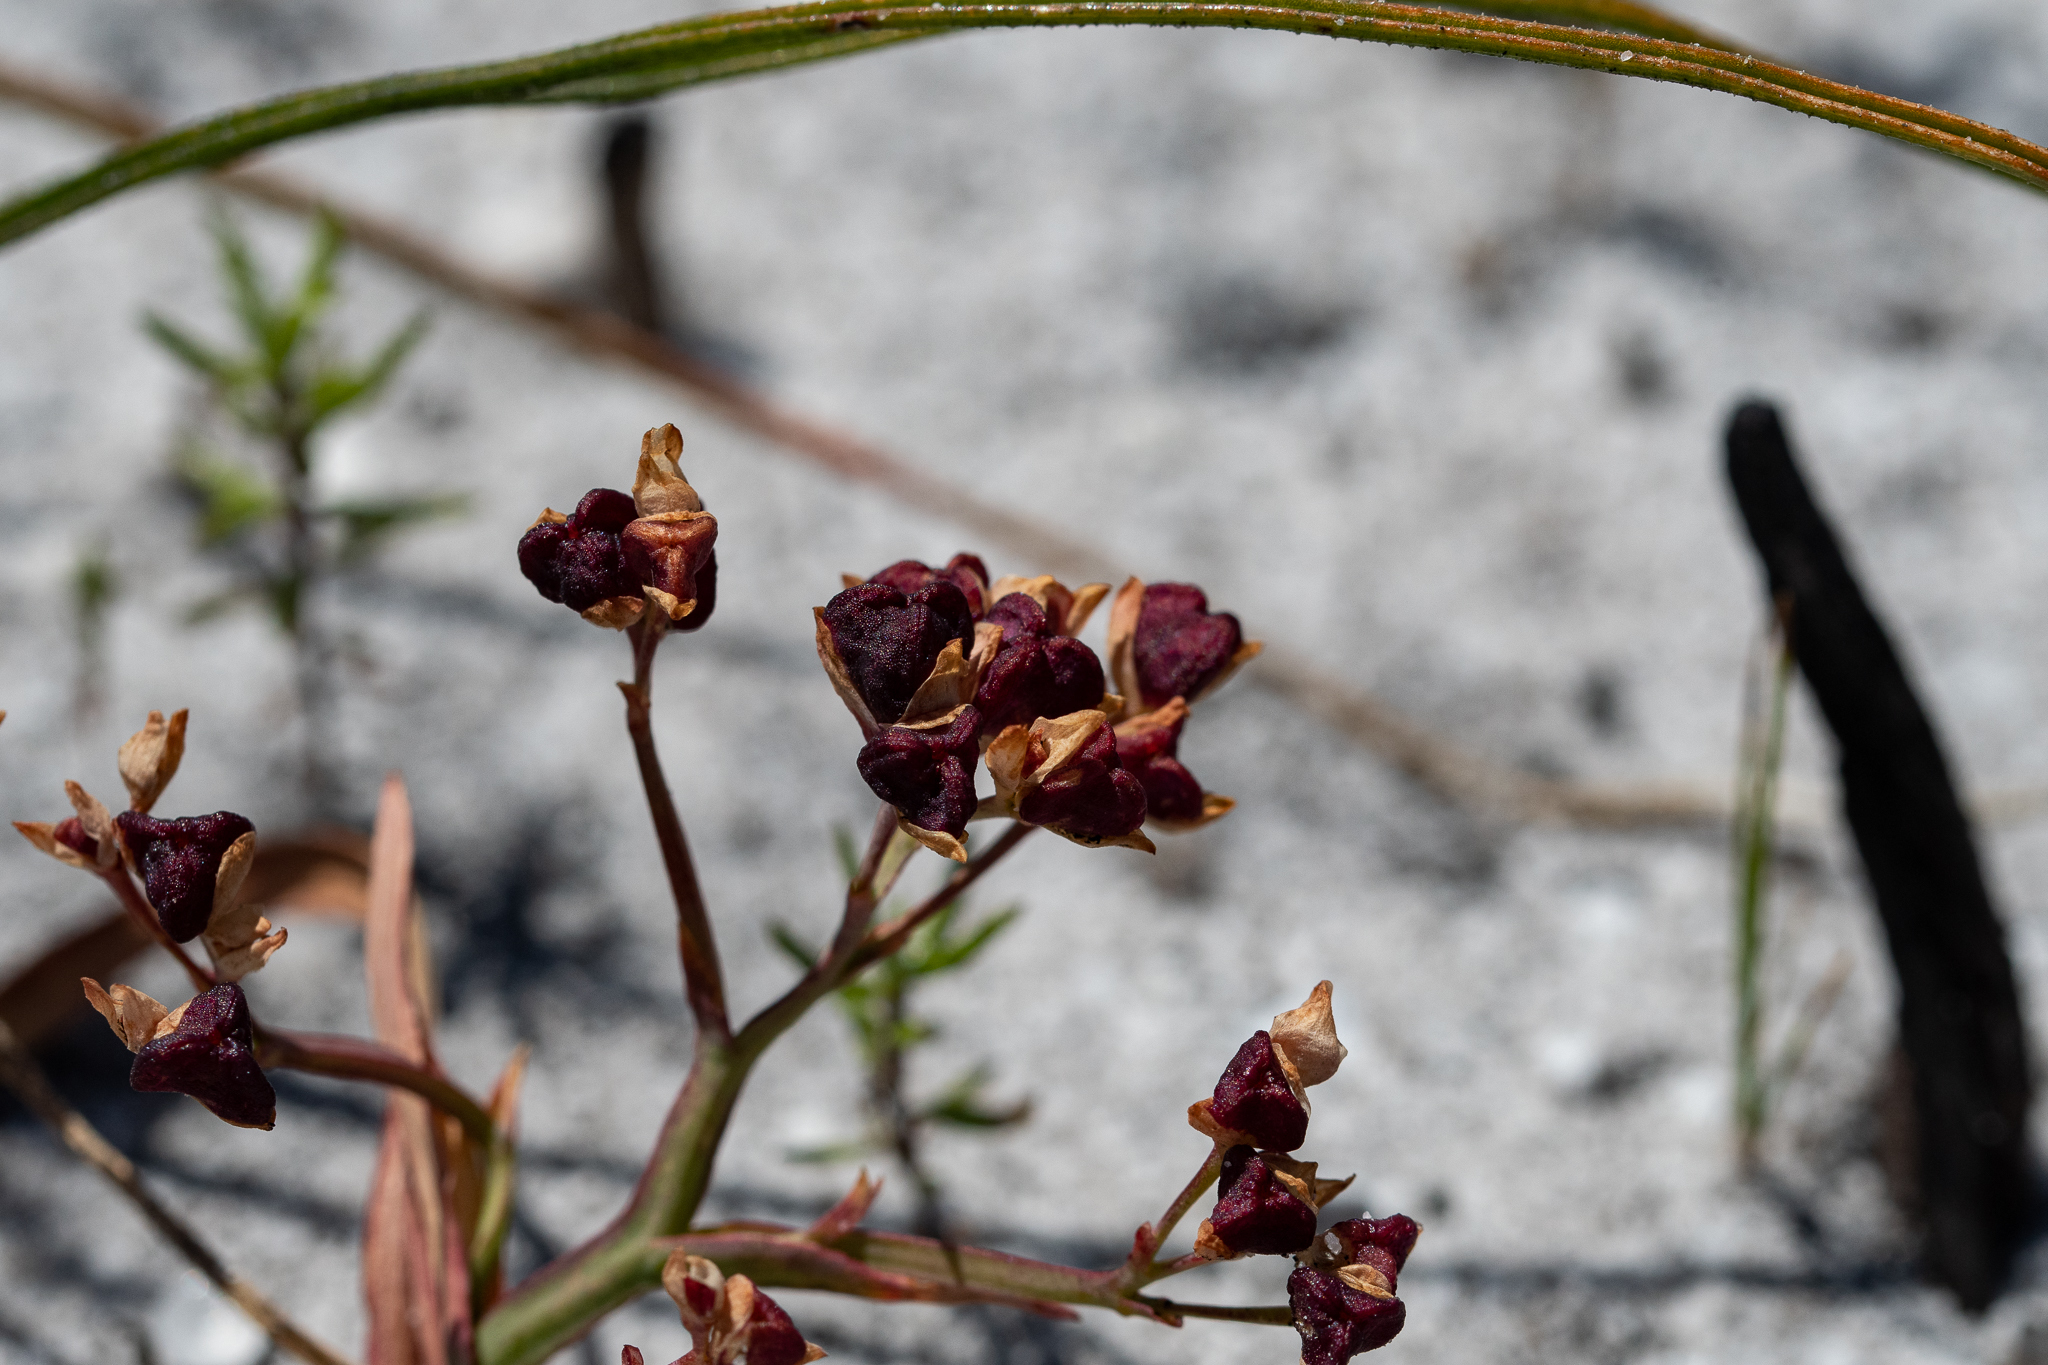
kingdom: Plantae
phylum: Tracheophyta
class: Liliopsida
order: Asparagales
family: Iridaceae
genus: Codonorhiza
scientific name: Codonorhiza corymbosa
